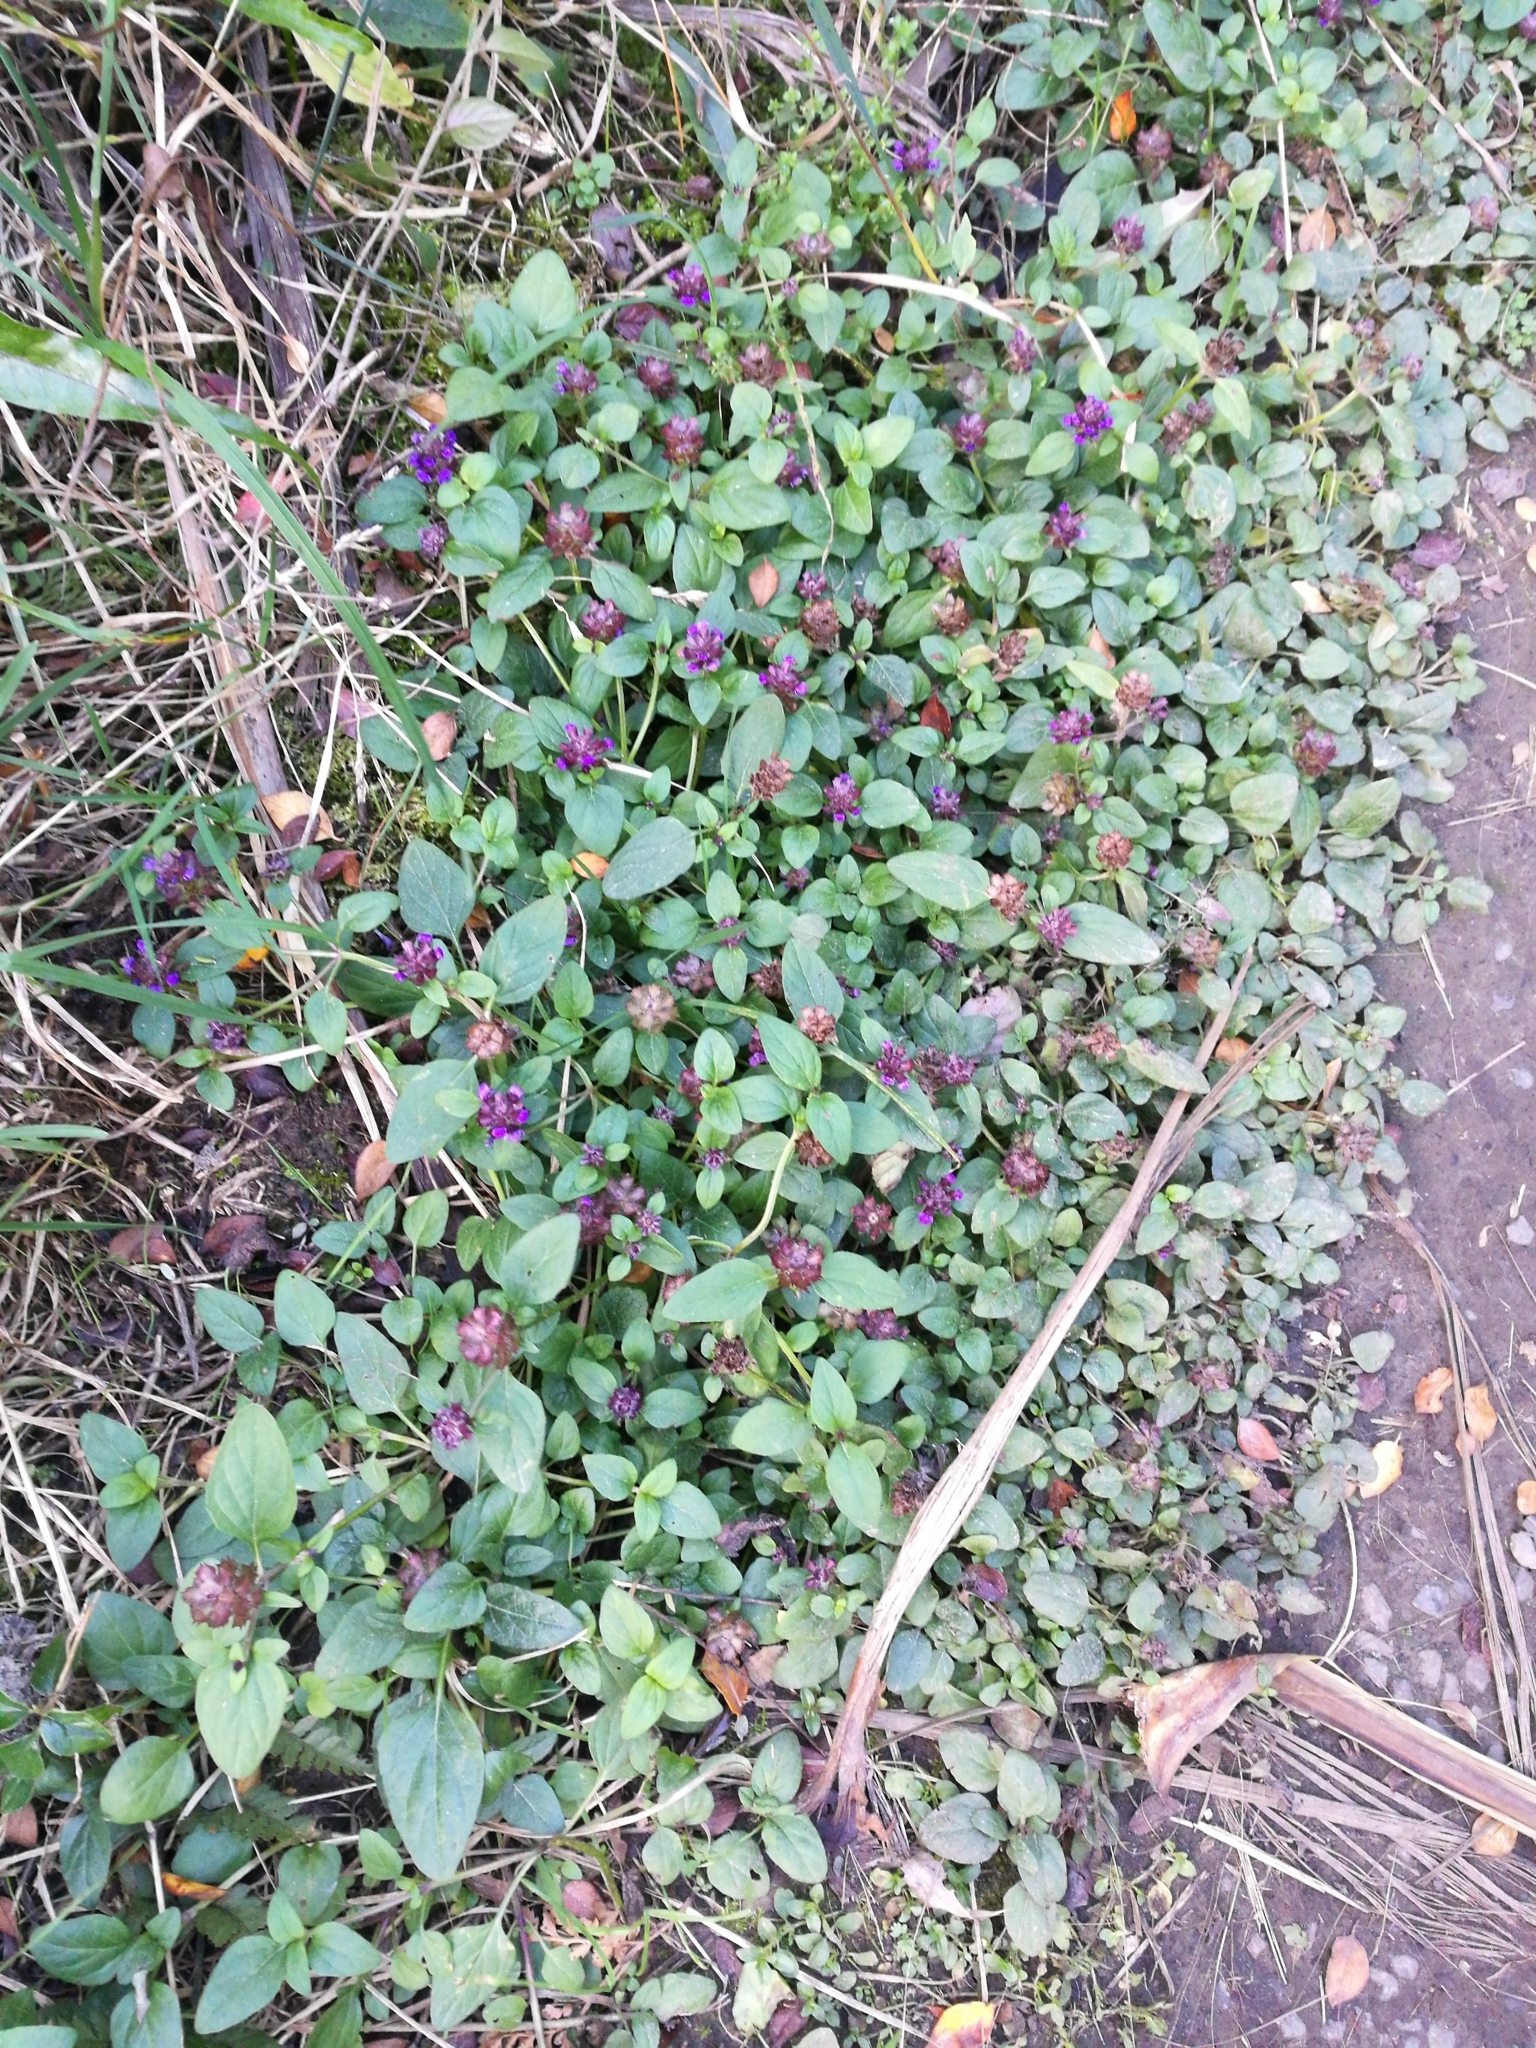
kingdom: Plantae
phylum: Tracheophyta
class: Magnoliopsida
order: Lamiales
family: Lamiaceae
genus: Prunella
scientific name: Prunella vulgaris
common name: Heal-all
